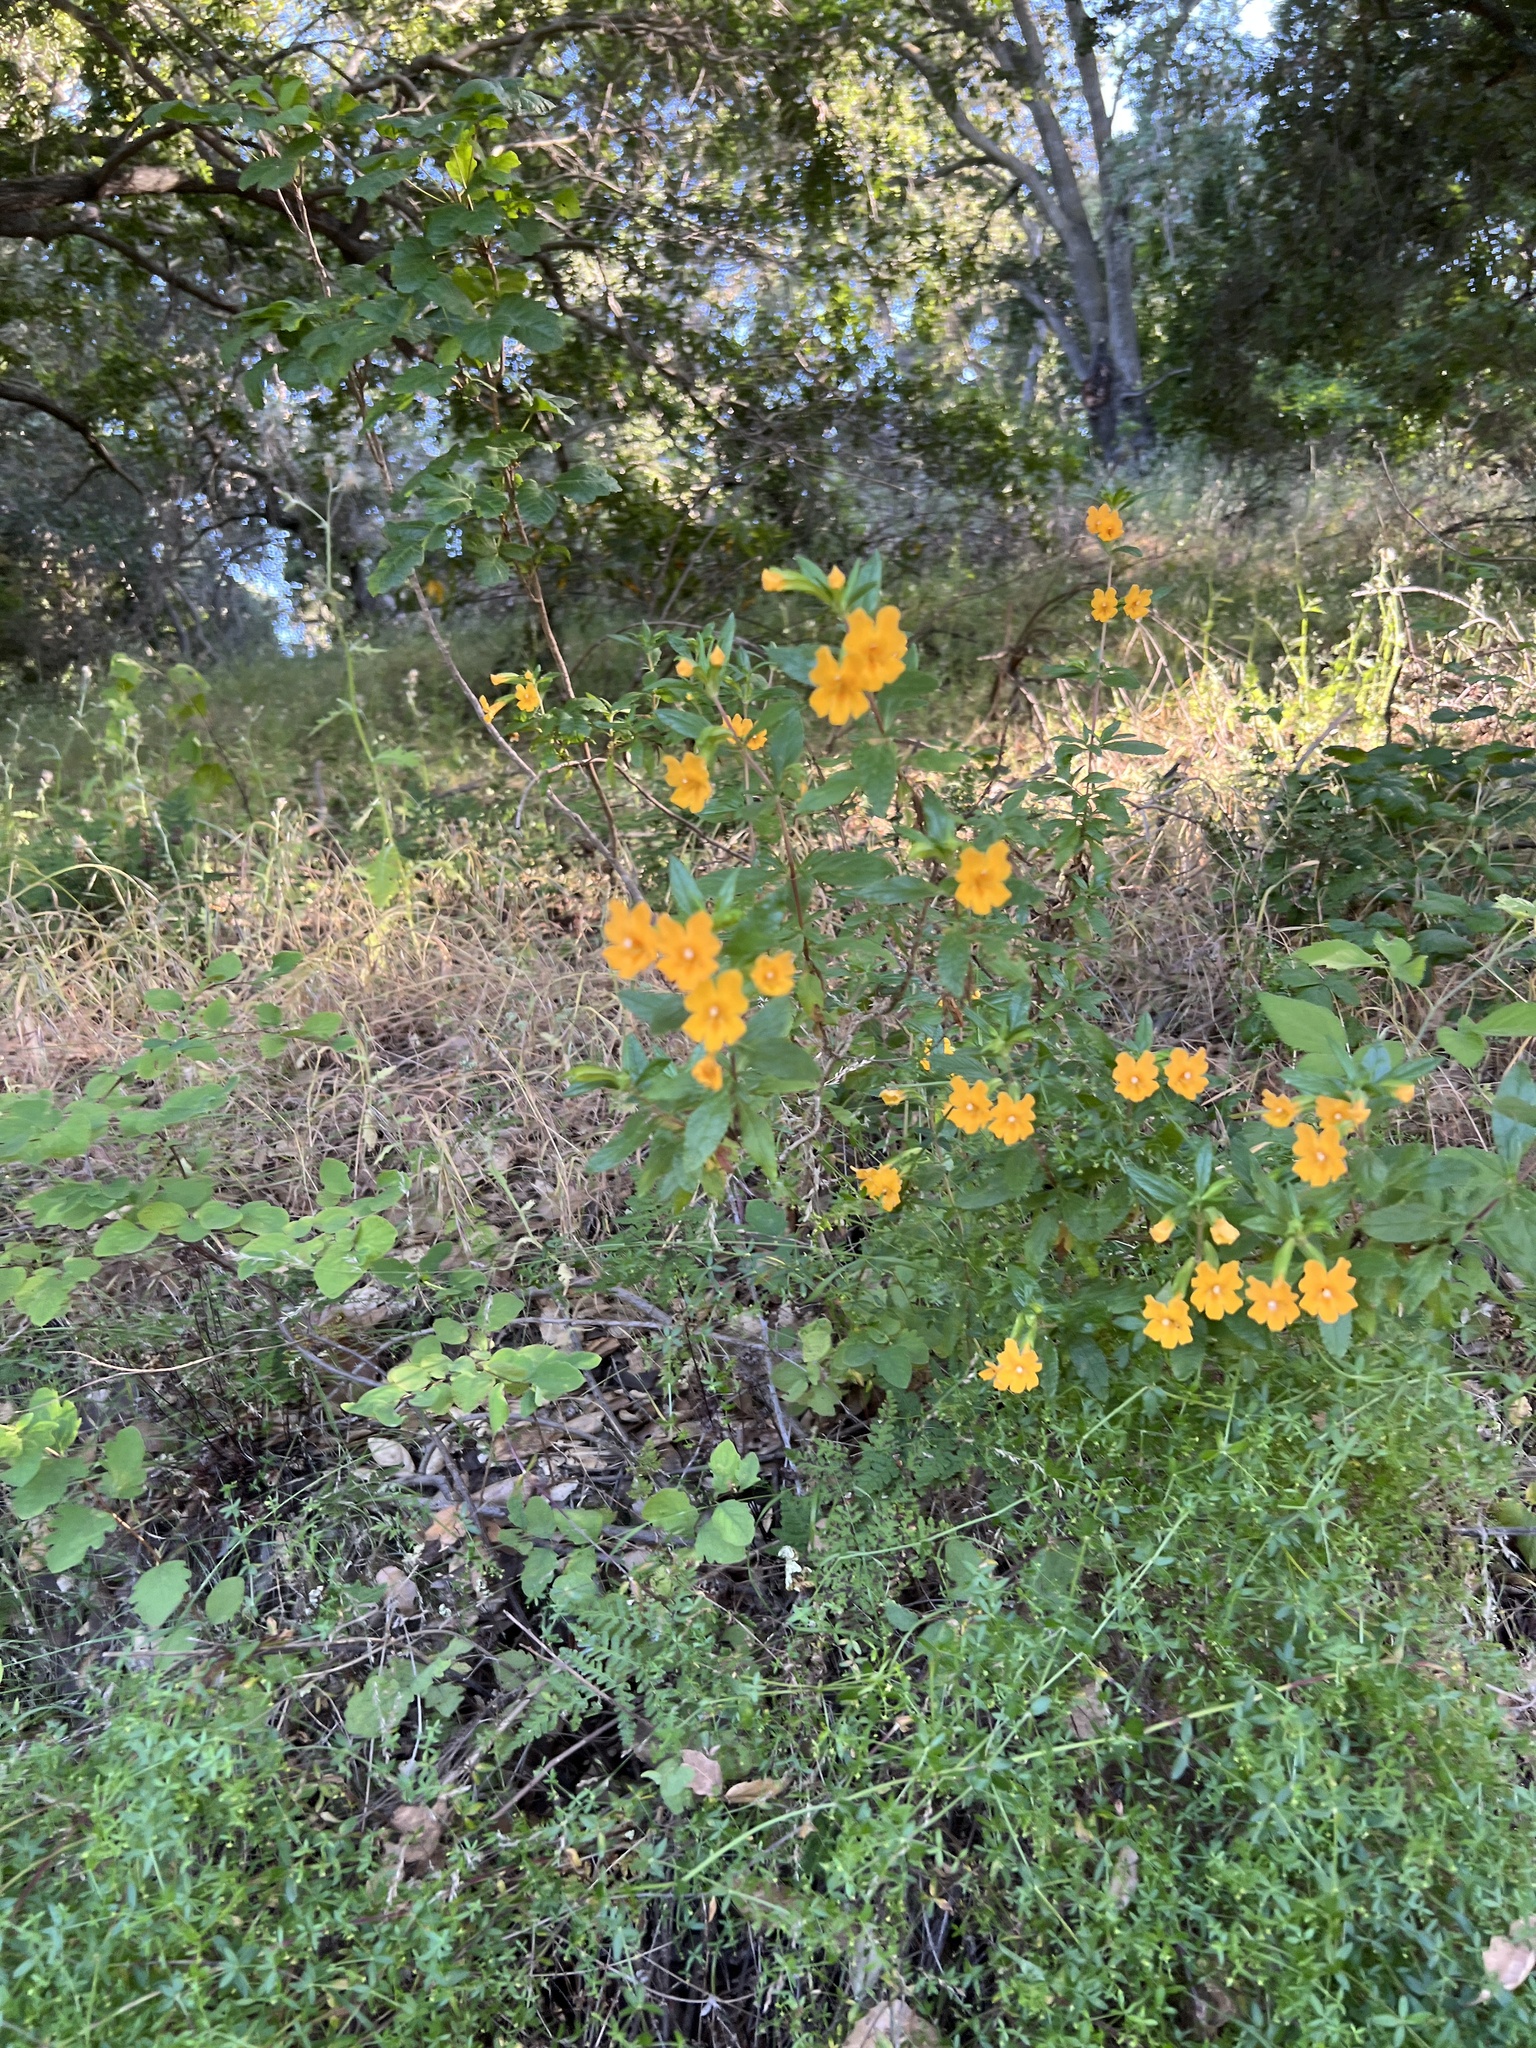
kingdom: Plantae
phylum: Tracheophyta
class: Magnoliopsida
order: Lamiales
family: Phrymaceae
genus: Diplacus
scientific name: Diplacus aurantiacus
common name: Bush monkey-flower
